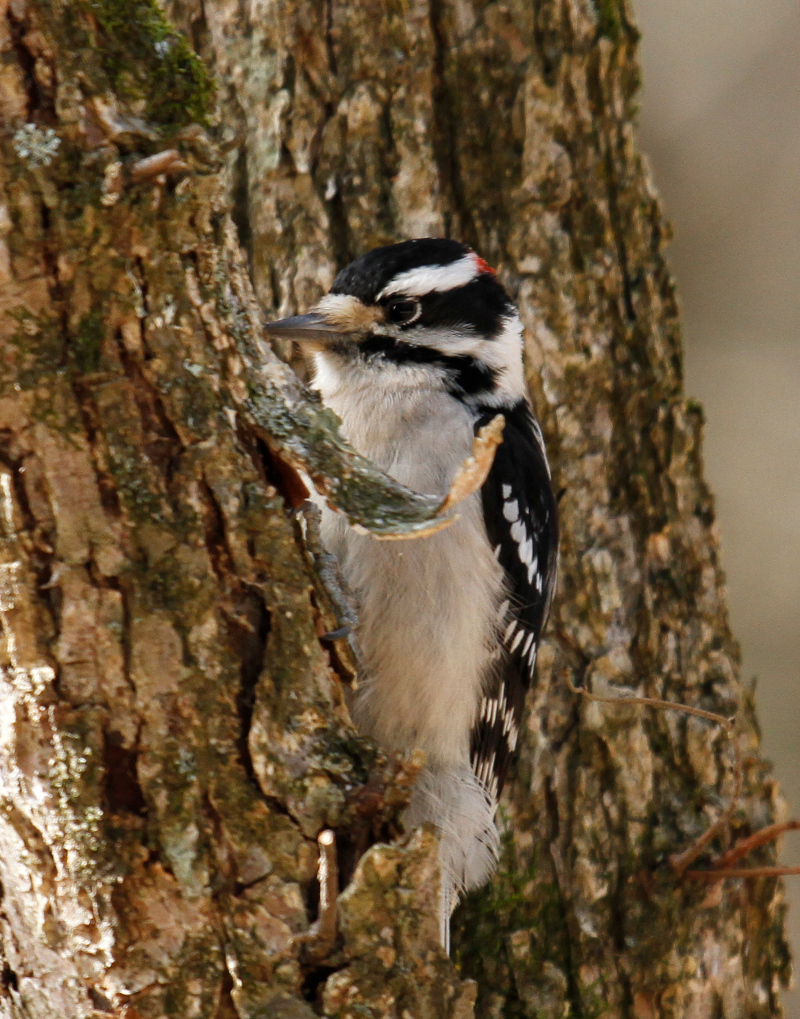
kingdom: Animalia
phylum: Chordata
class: Aves
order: Piciformes
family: Picidae
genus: Dryobates
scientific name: Dryobates pubescens
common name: Downy woodpecker
